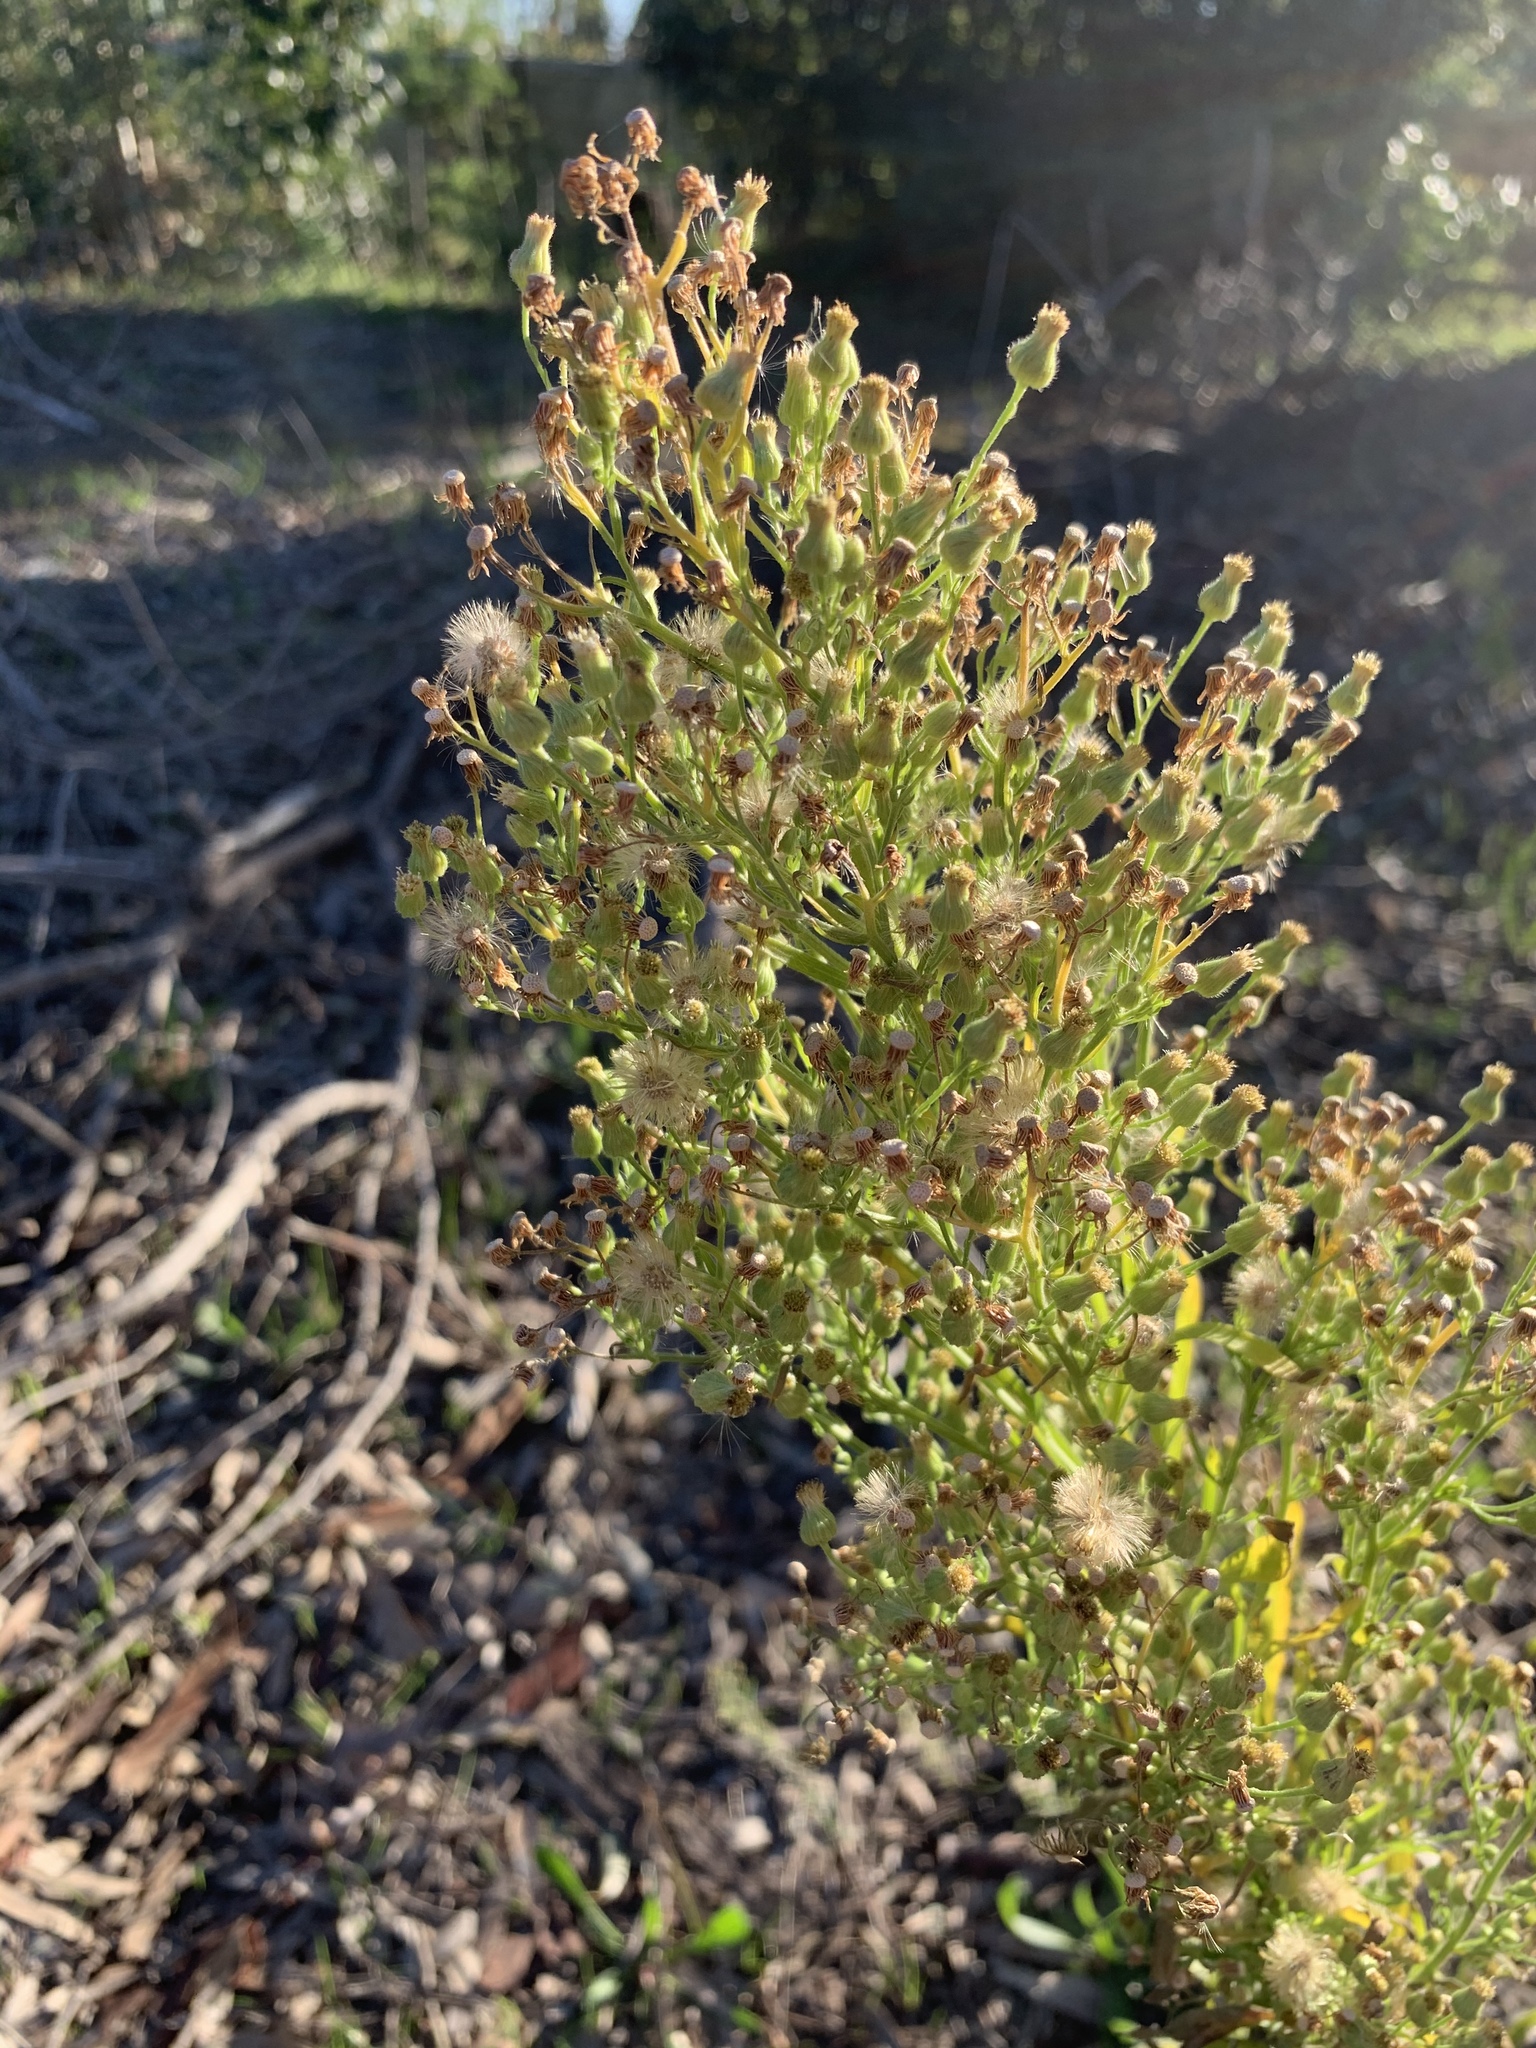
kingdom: Plantae
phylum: Tracheophyta
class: Magnoliopsida
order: Asterales
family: Asteraceae
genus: Erigeron
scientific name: Erigeron sumatrensis
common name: Daisy
